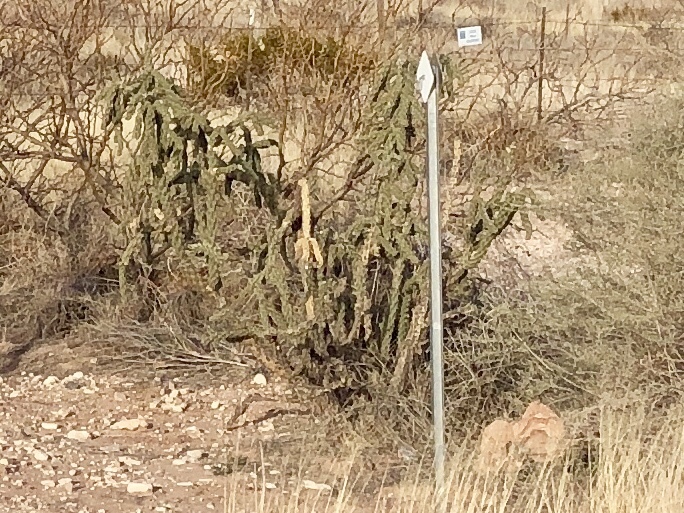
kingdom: Plantae
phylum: Tracheophyta
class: Magnoliopsida
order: Caryophyllales
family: Cactaceae
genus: Cylindropuntia
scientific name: Cylindropuntia imbricata
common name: Candelabrum cactus
